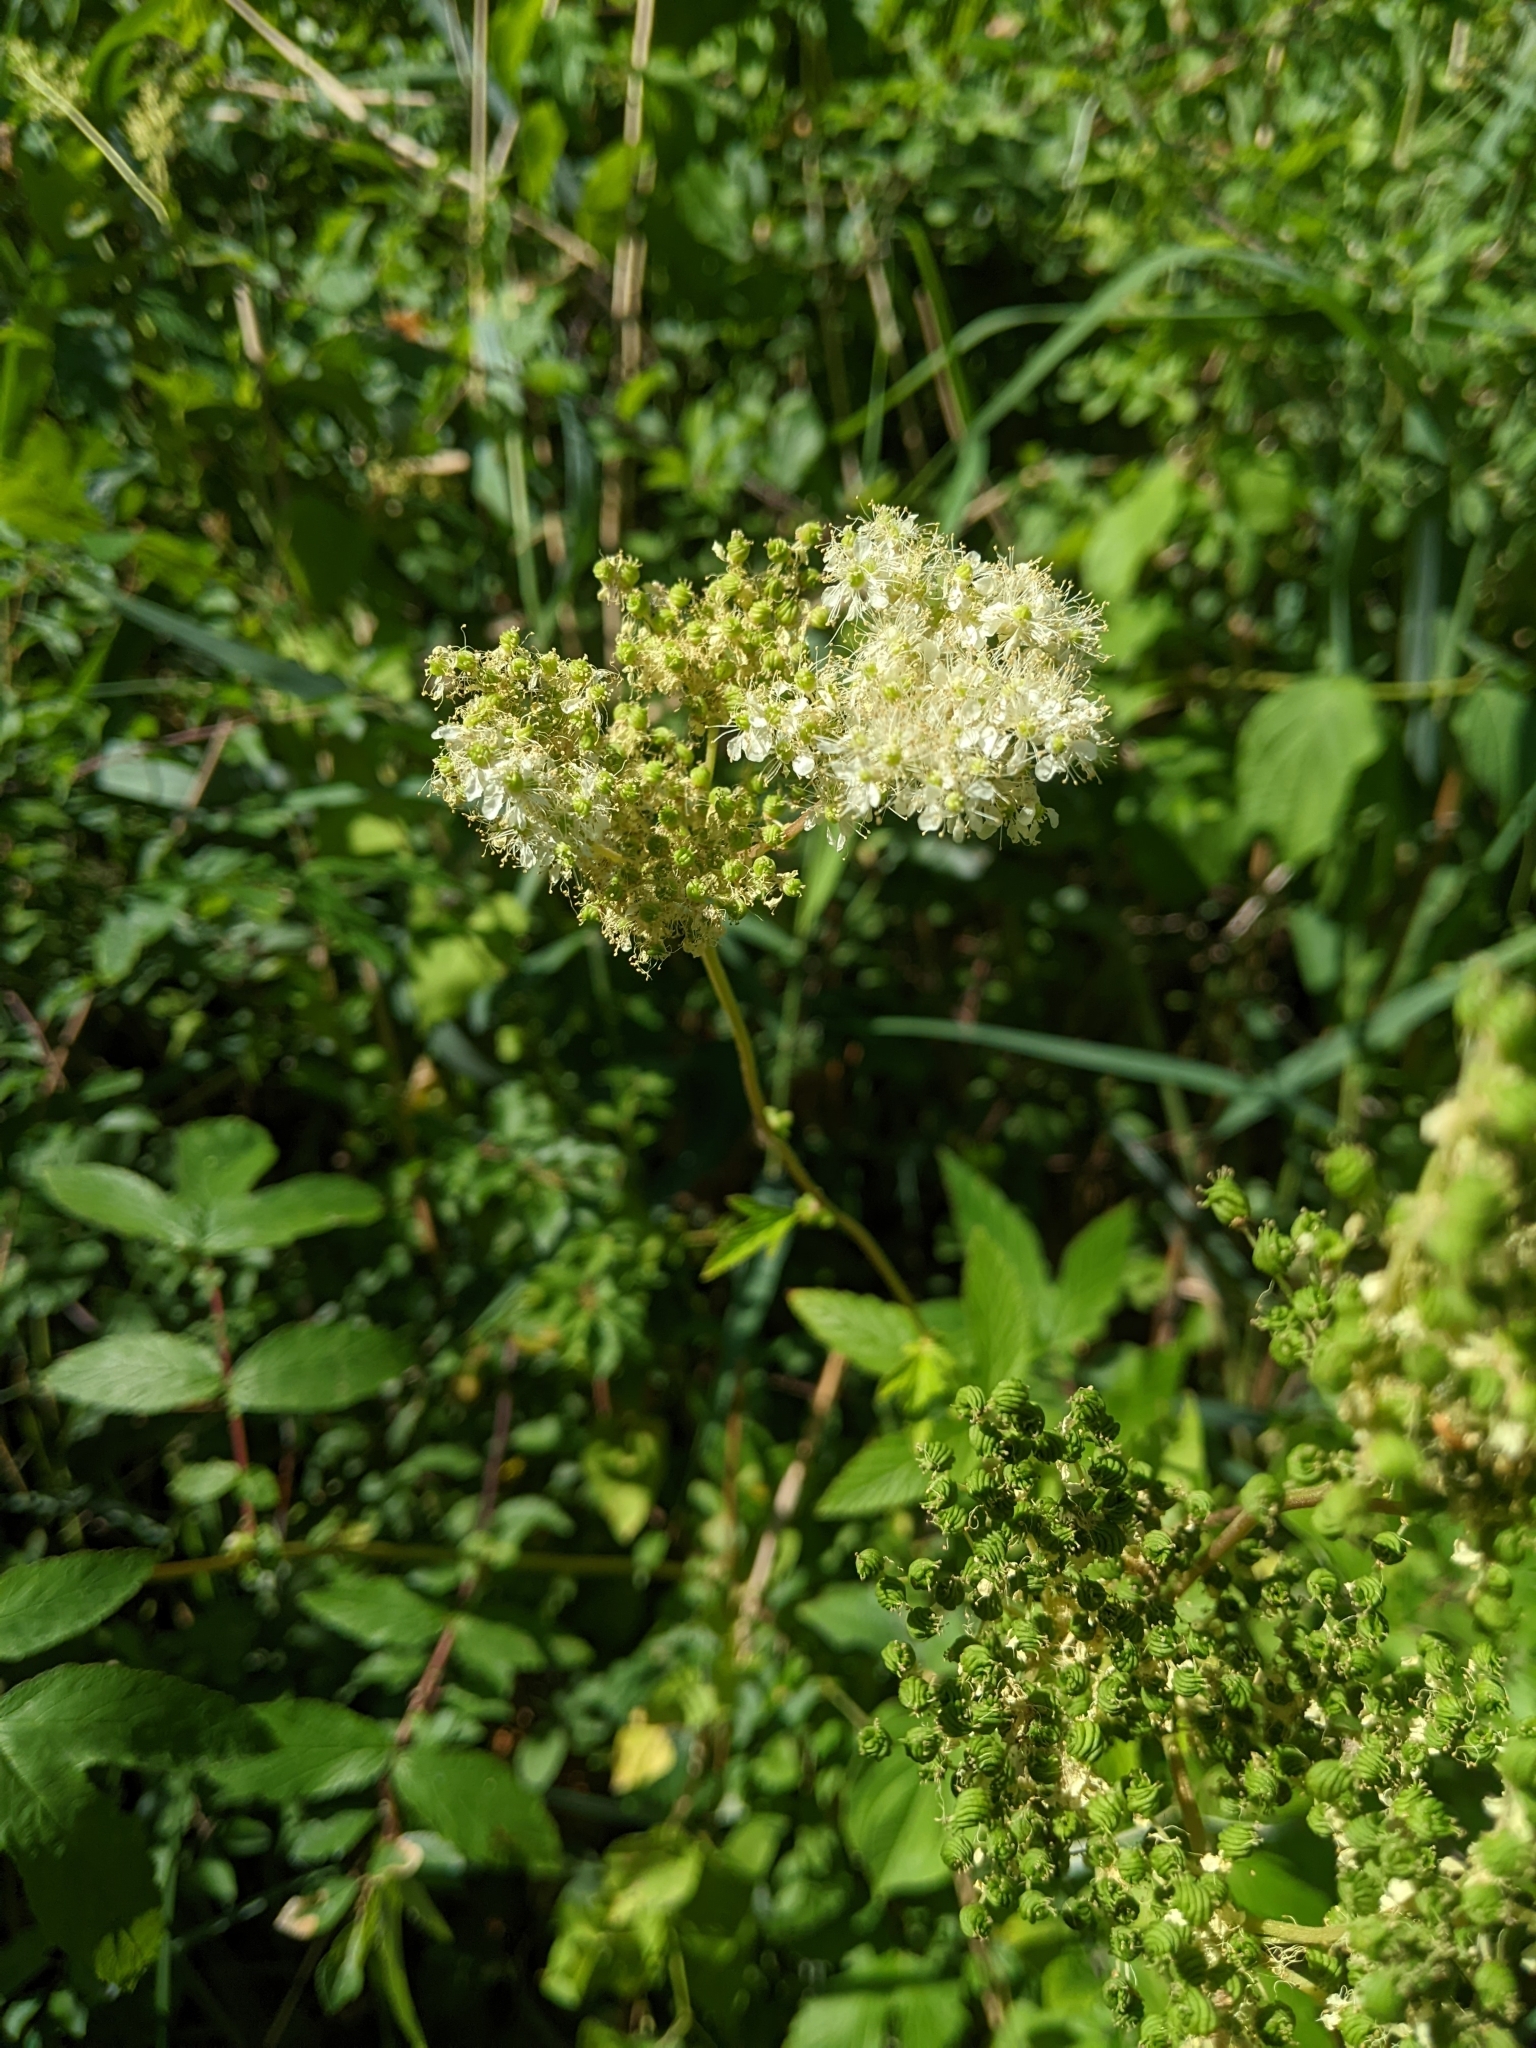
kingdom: Plantae
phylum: Tracheophyta
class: Magnoliopsida
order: Rosales
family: Rosaceae
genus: Filipendula
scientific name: Filipendula ulmaria
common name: Meadowsweet
